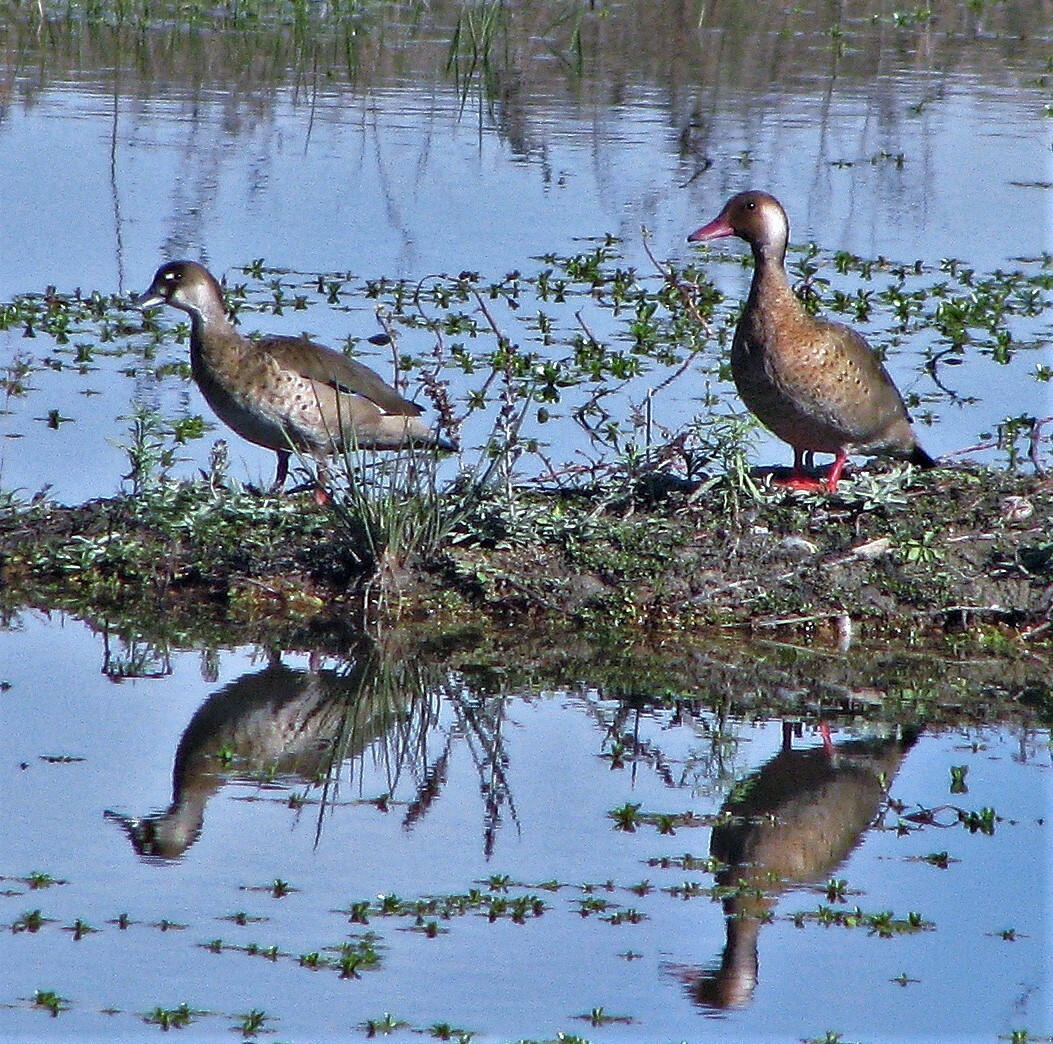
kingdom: Animalia
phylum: Chordata
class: Aves
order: Anseriformes
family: Anatidae
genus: Amazonetta
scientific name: Amazonetta brasiliensis
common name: Brazilian teal
